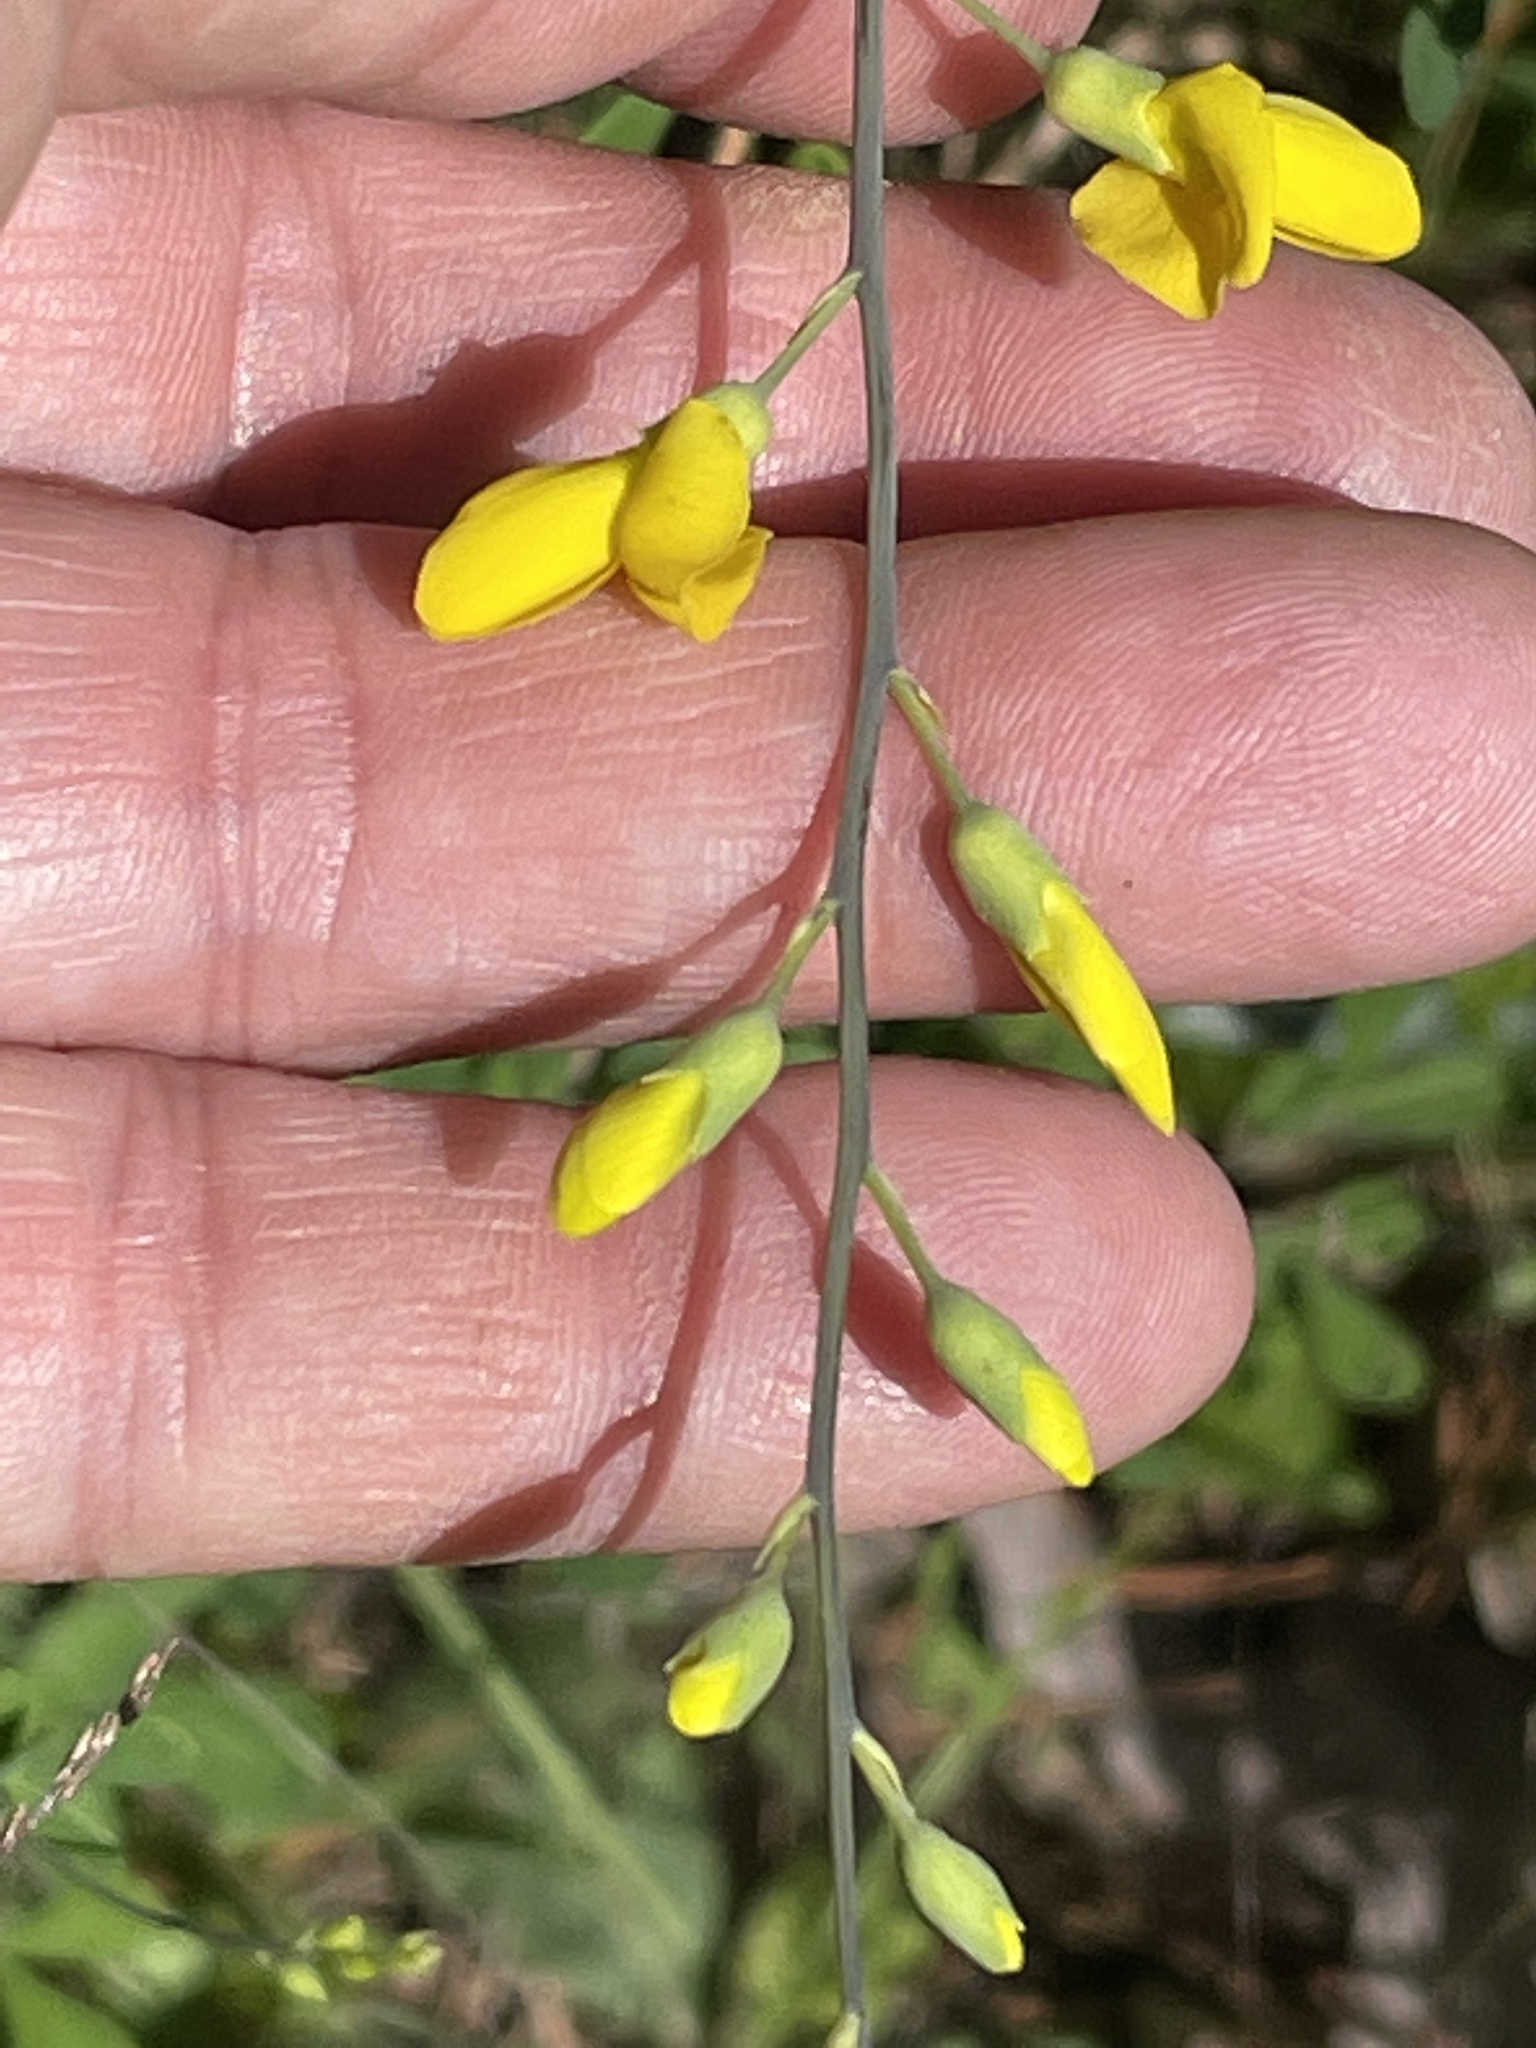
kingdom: Plantae
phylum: Tracheophyta
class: Magnoliopsida
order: Fabales
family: Fabaceae
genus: Baptisia
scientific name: Baptisia tinctoria
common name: Wild indigo
